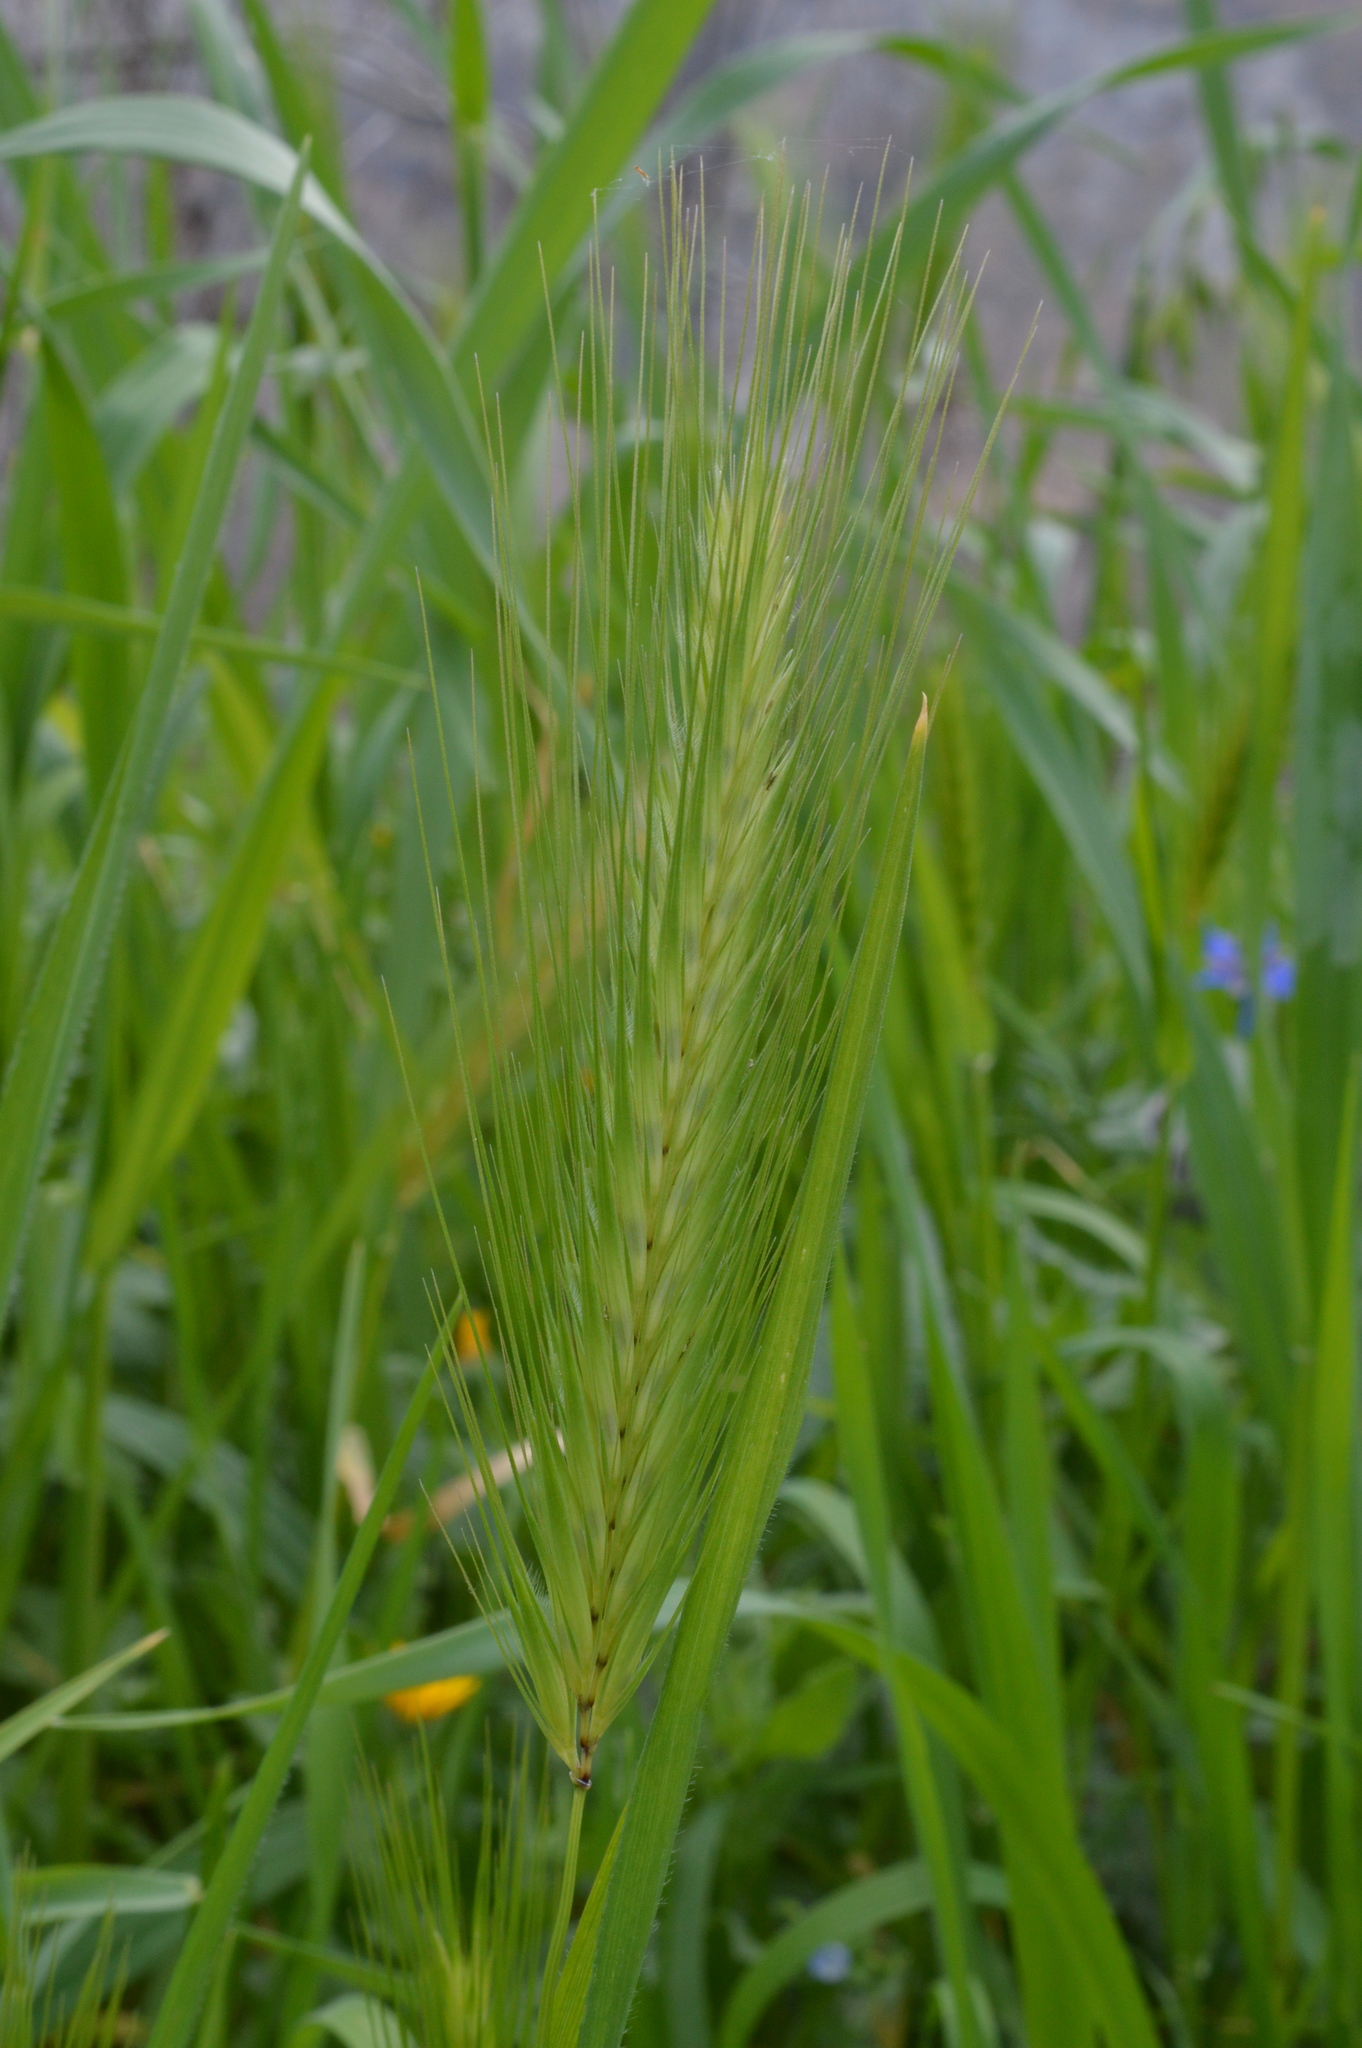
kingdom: Plantae
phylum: Tracheophyta
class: Liliopsida
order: Poales
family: Poaceae
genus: Hordeum
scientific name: Hordeum murinum
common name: Wall barley
